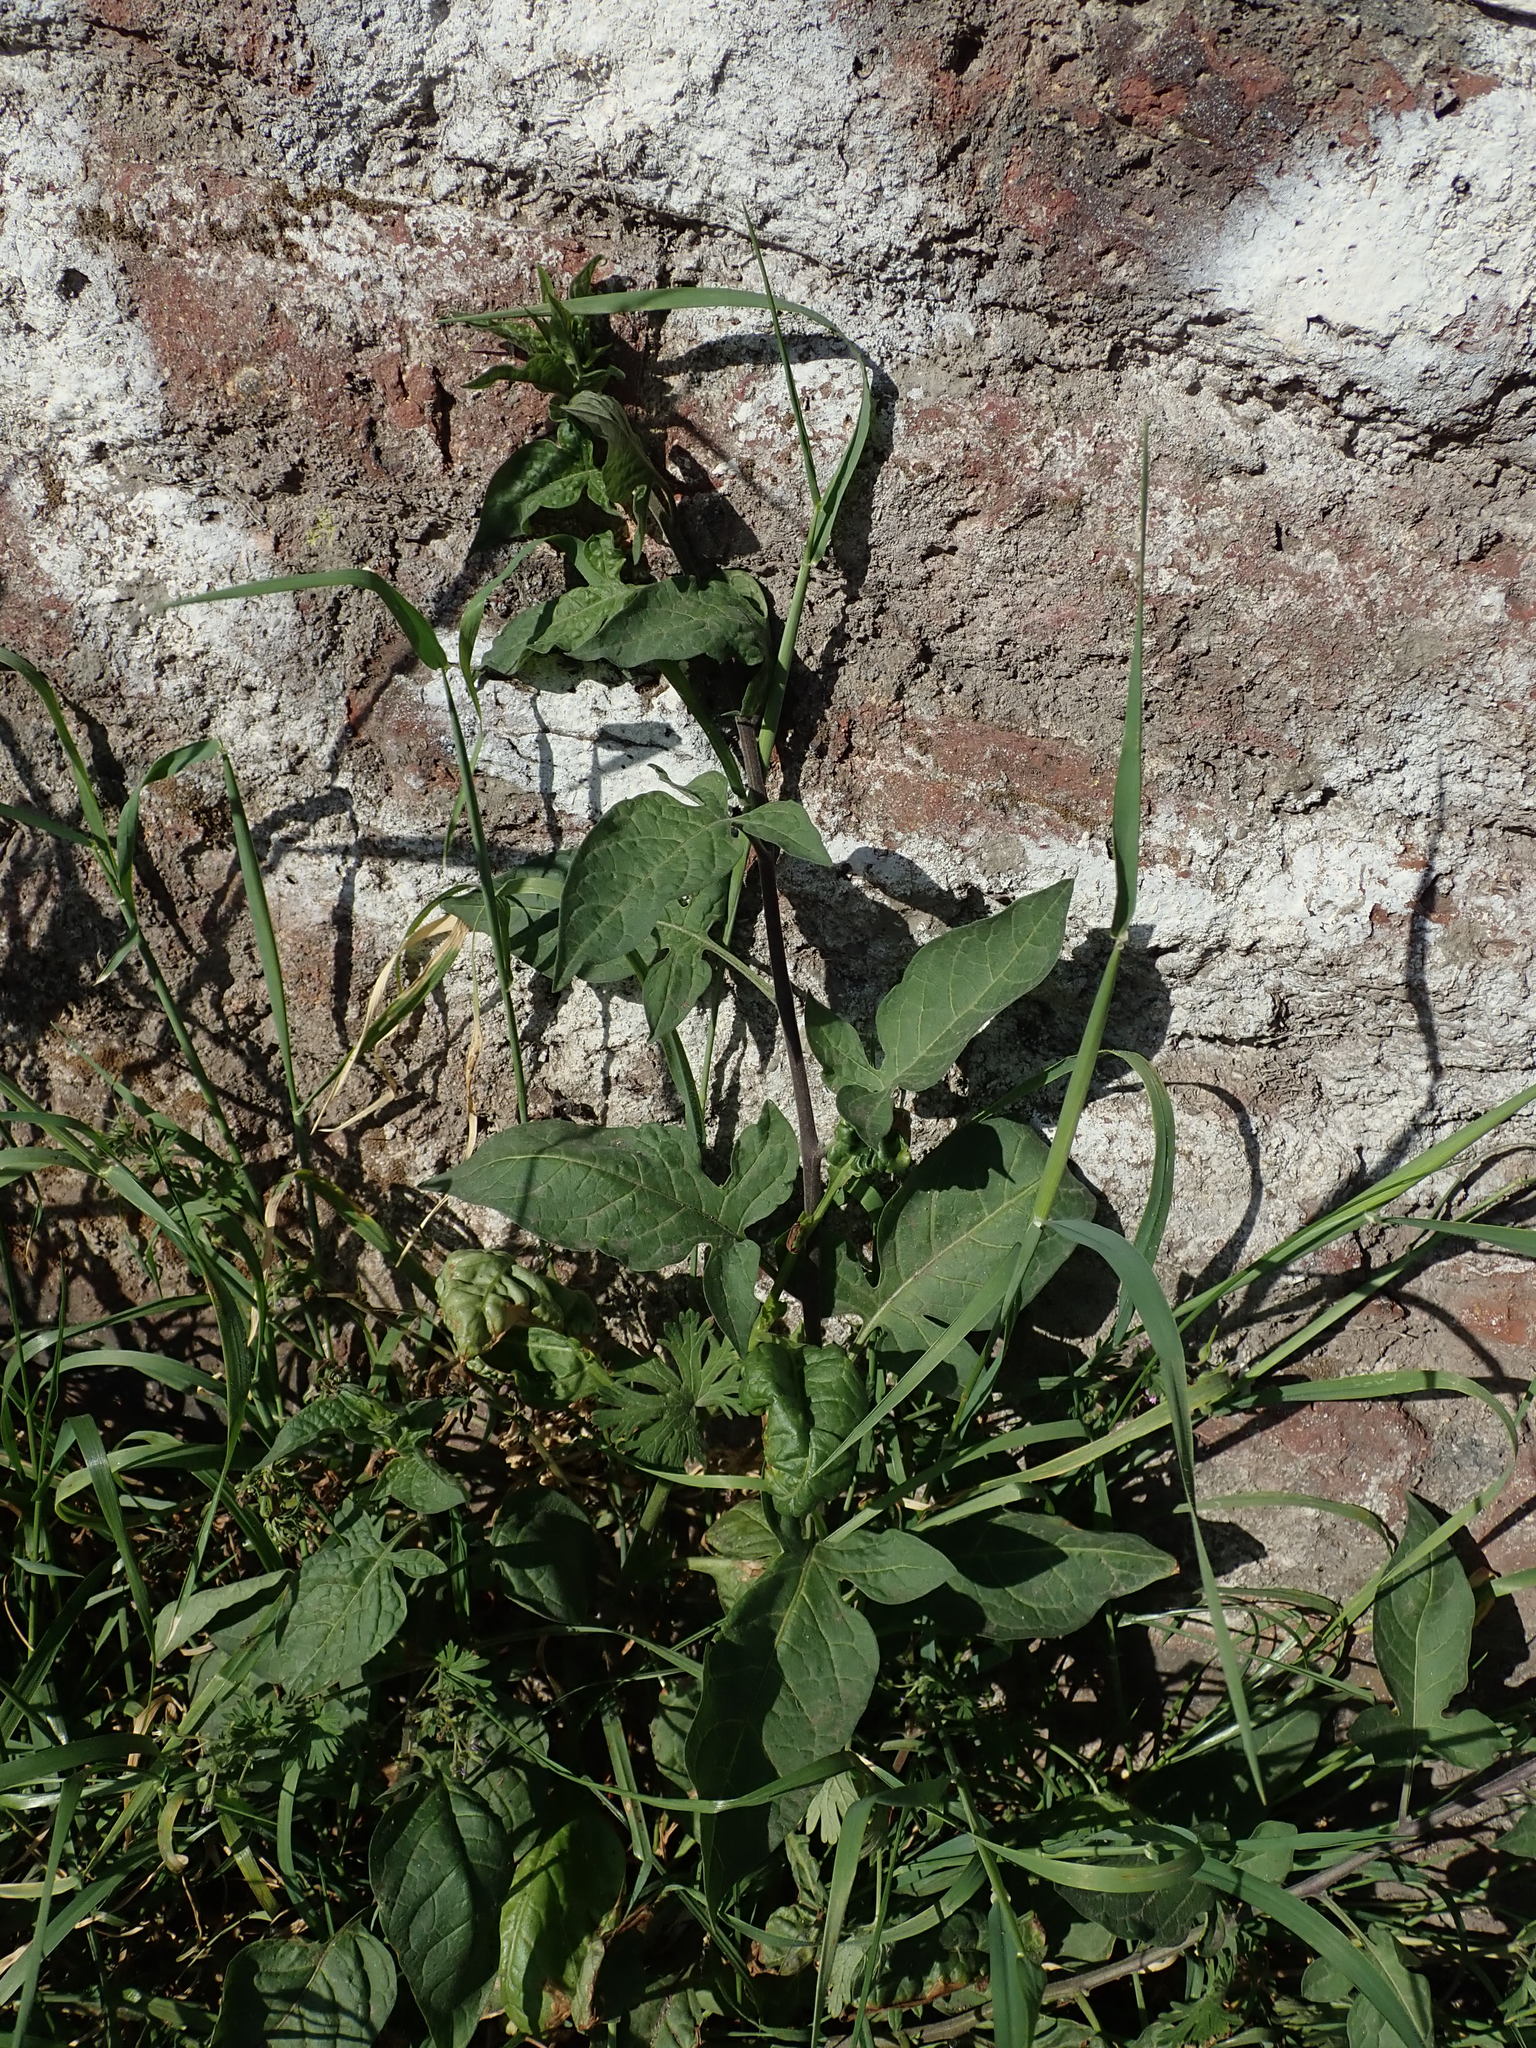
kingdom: Plantae
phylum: Tracheophyta
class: Magnoliopsida
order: Solanales
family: Solanaceae
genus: Solanum
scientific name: Solanum dulcamara
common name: Climbing nightshade
